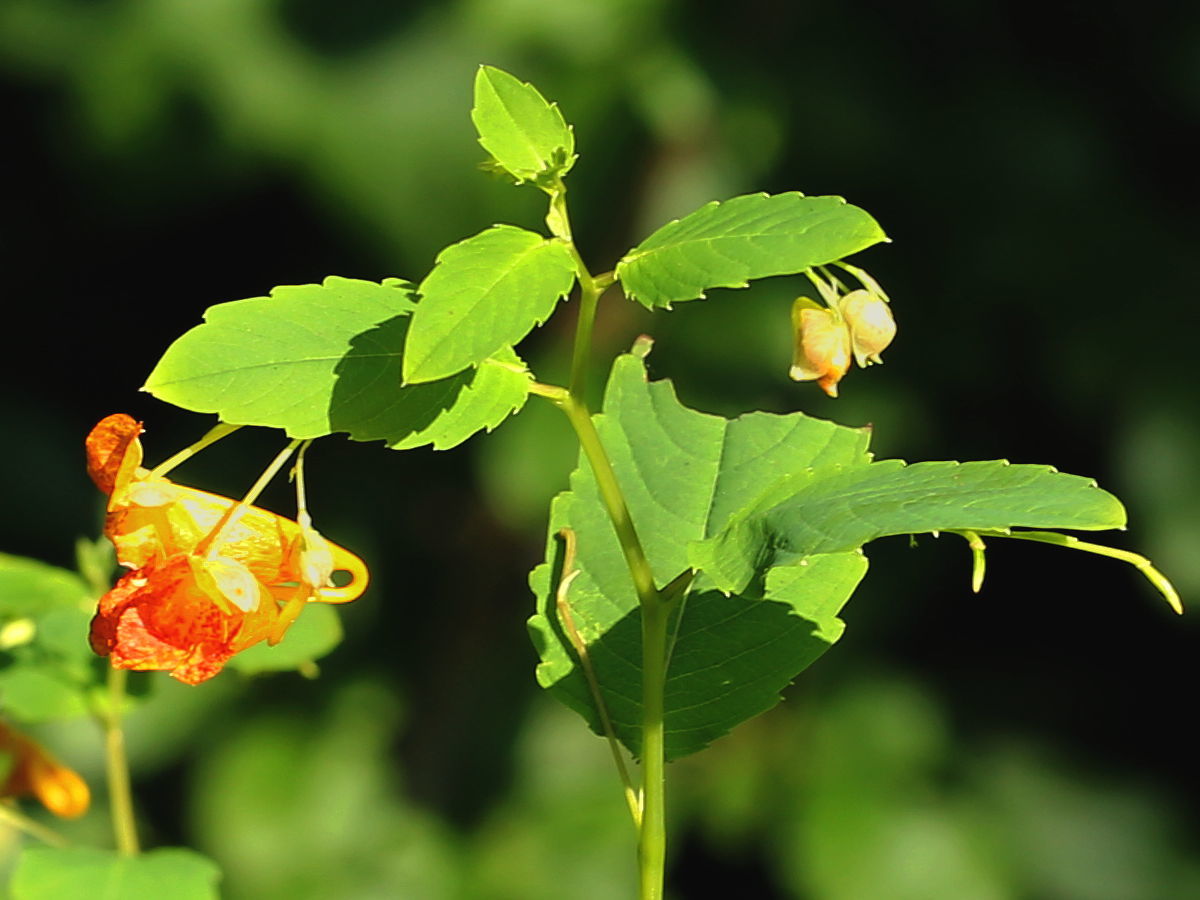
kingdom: Plantae
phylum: Tracheophyta
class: Magnoliopsida
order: Ericales
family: Balsaminaceae
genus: Impatiens
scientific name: Impatiens capensis
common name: Orange balsam
